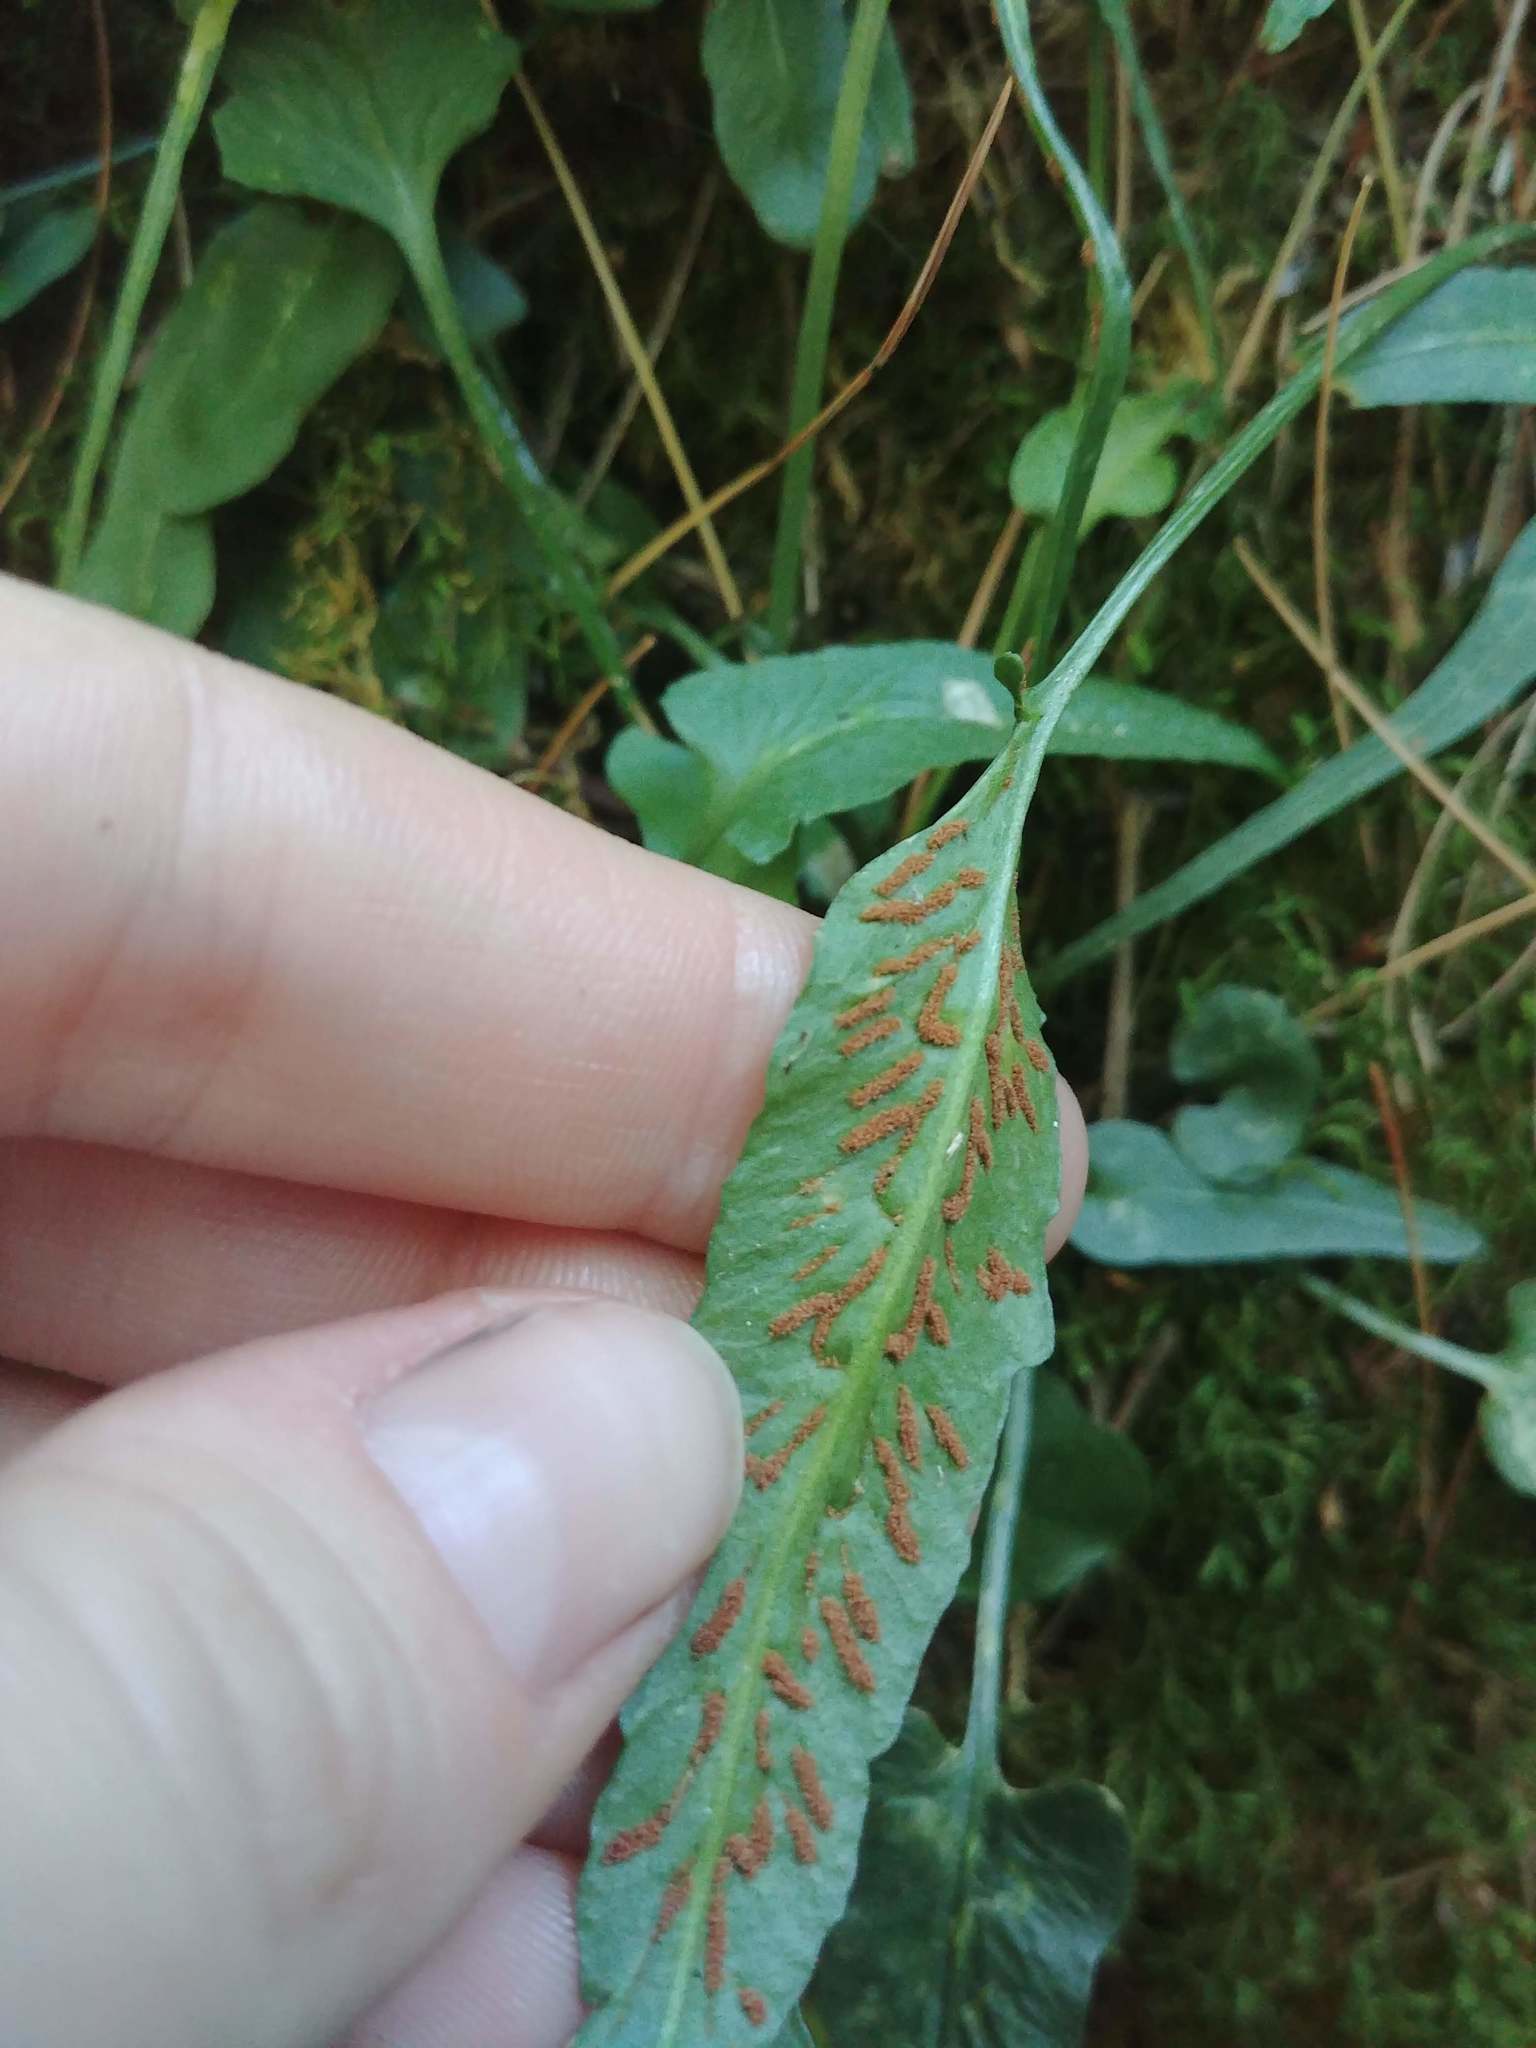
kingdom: Plantae
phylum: Tracheophyta
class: Polypodiopsida
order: Polypodiales
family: Aspleniaceae
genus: Asplenium
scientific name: Asplenium rhizophyllum
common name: Walking fern
